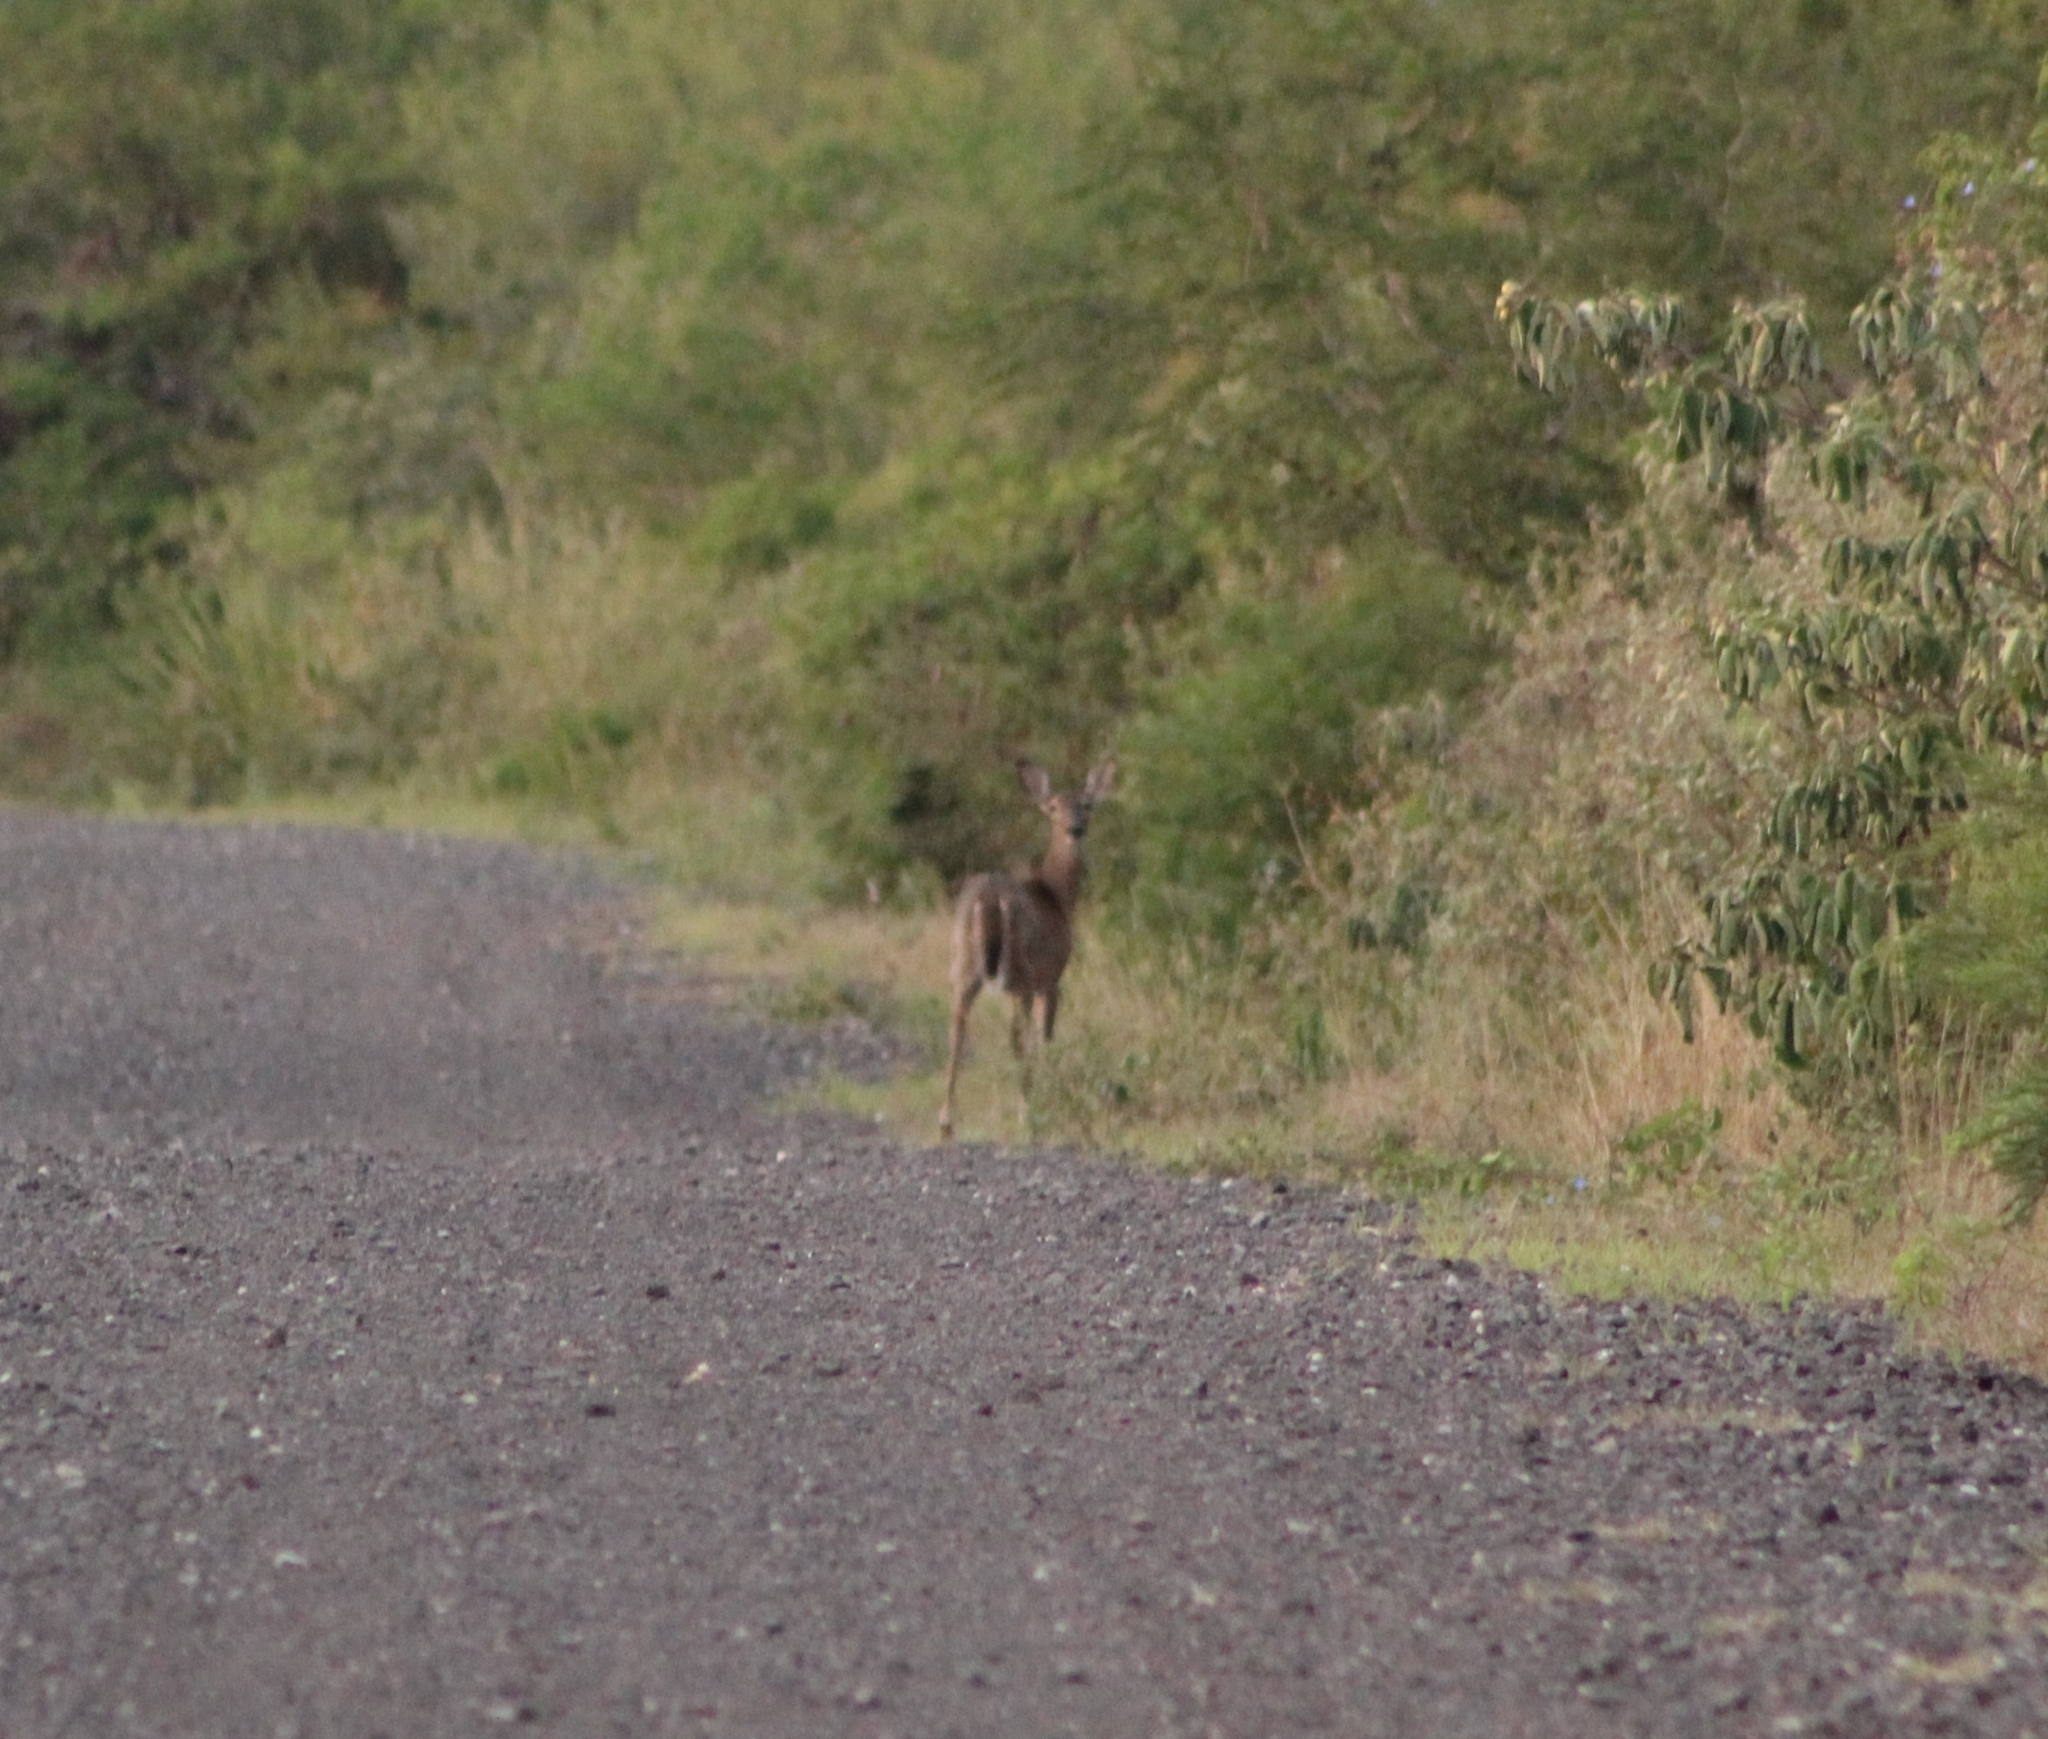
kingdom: Animalia
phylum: Chordata
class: Mammalia
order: Artiodactyla
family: Cervidae
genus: Odocoileus
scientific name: Odocoileus virginianus
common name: White-tailed deer
